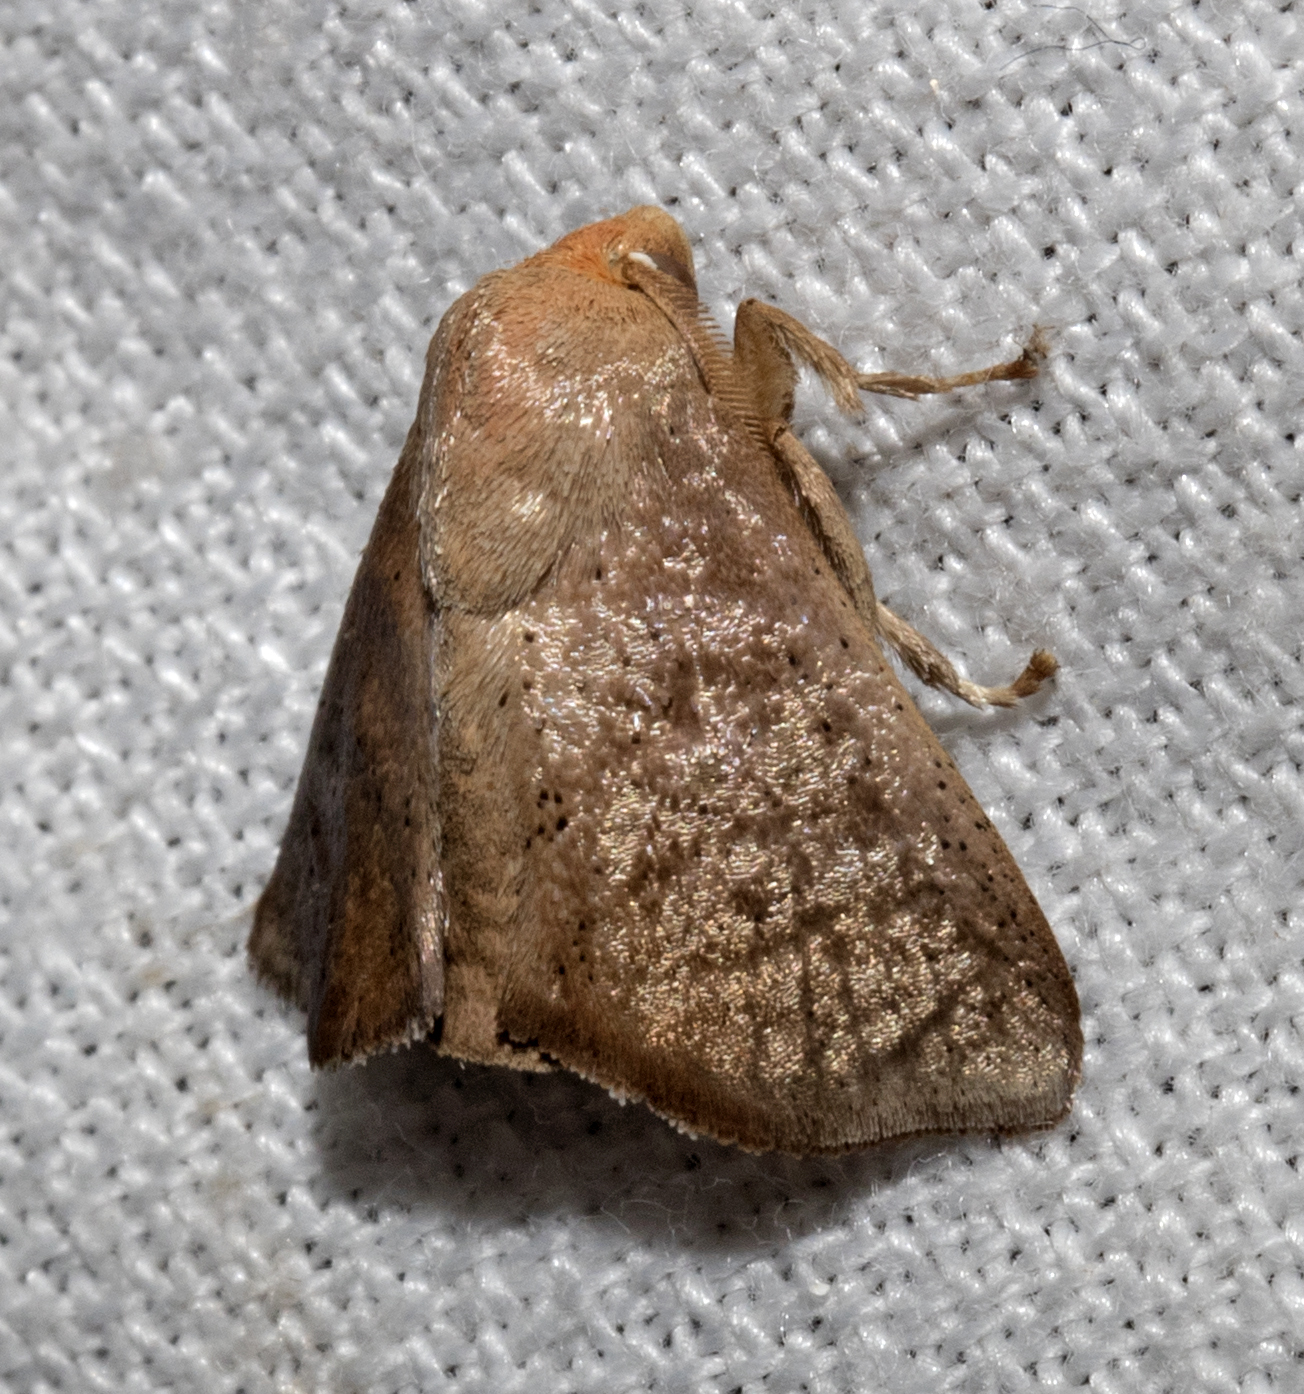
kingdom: Animalia
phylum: Arthropoda
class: Insecta
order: Lepidoptera
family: Limacodidae
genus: Natada
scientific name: Natada michorta
